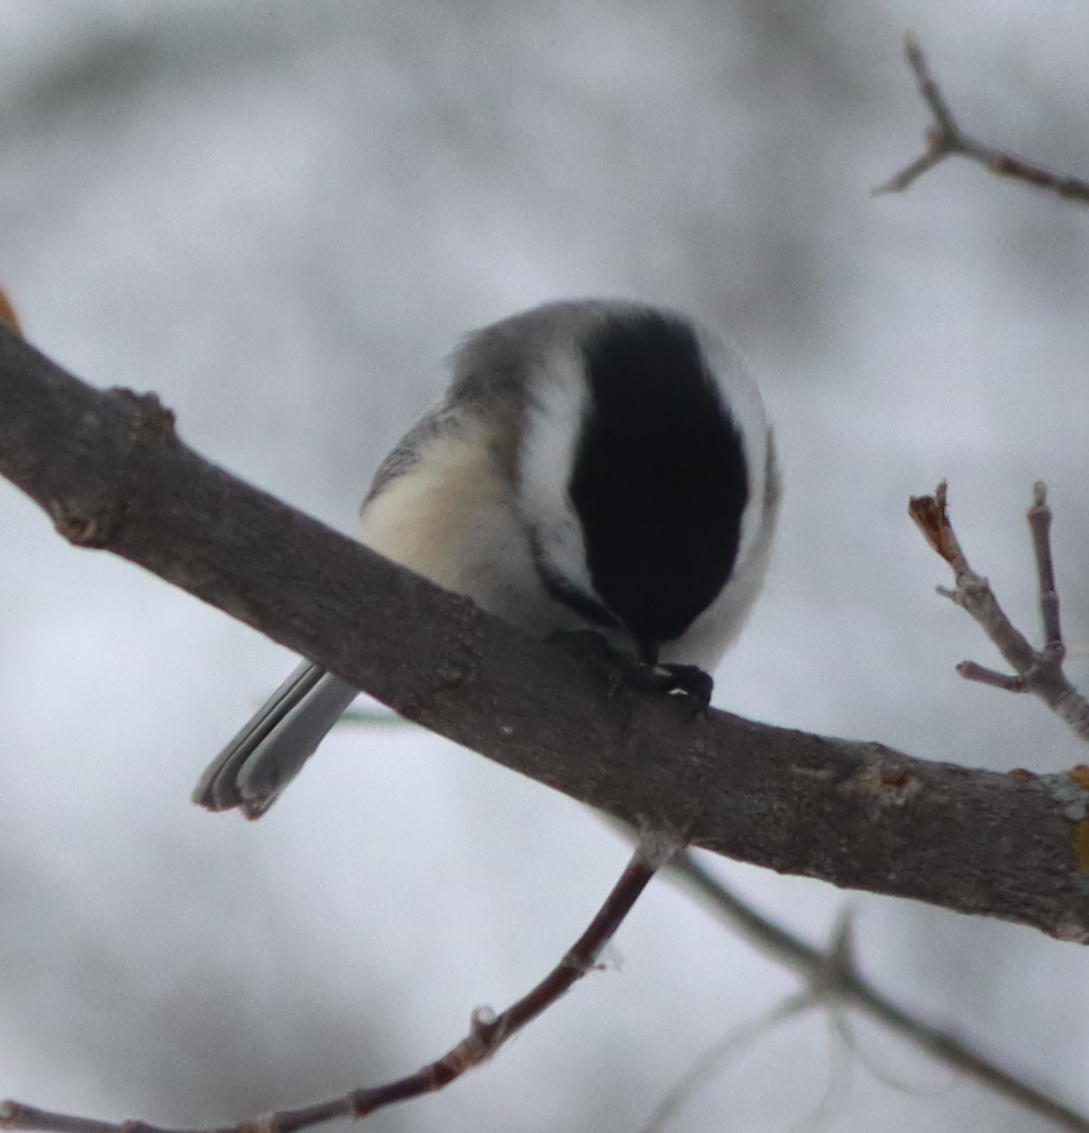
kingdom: Animalia
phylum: Chordata
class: Aves
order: Passeriformes
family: Paridae
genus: Poecile
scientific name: Poecile atricapillus
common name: Black-capped chickadee
